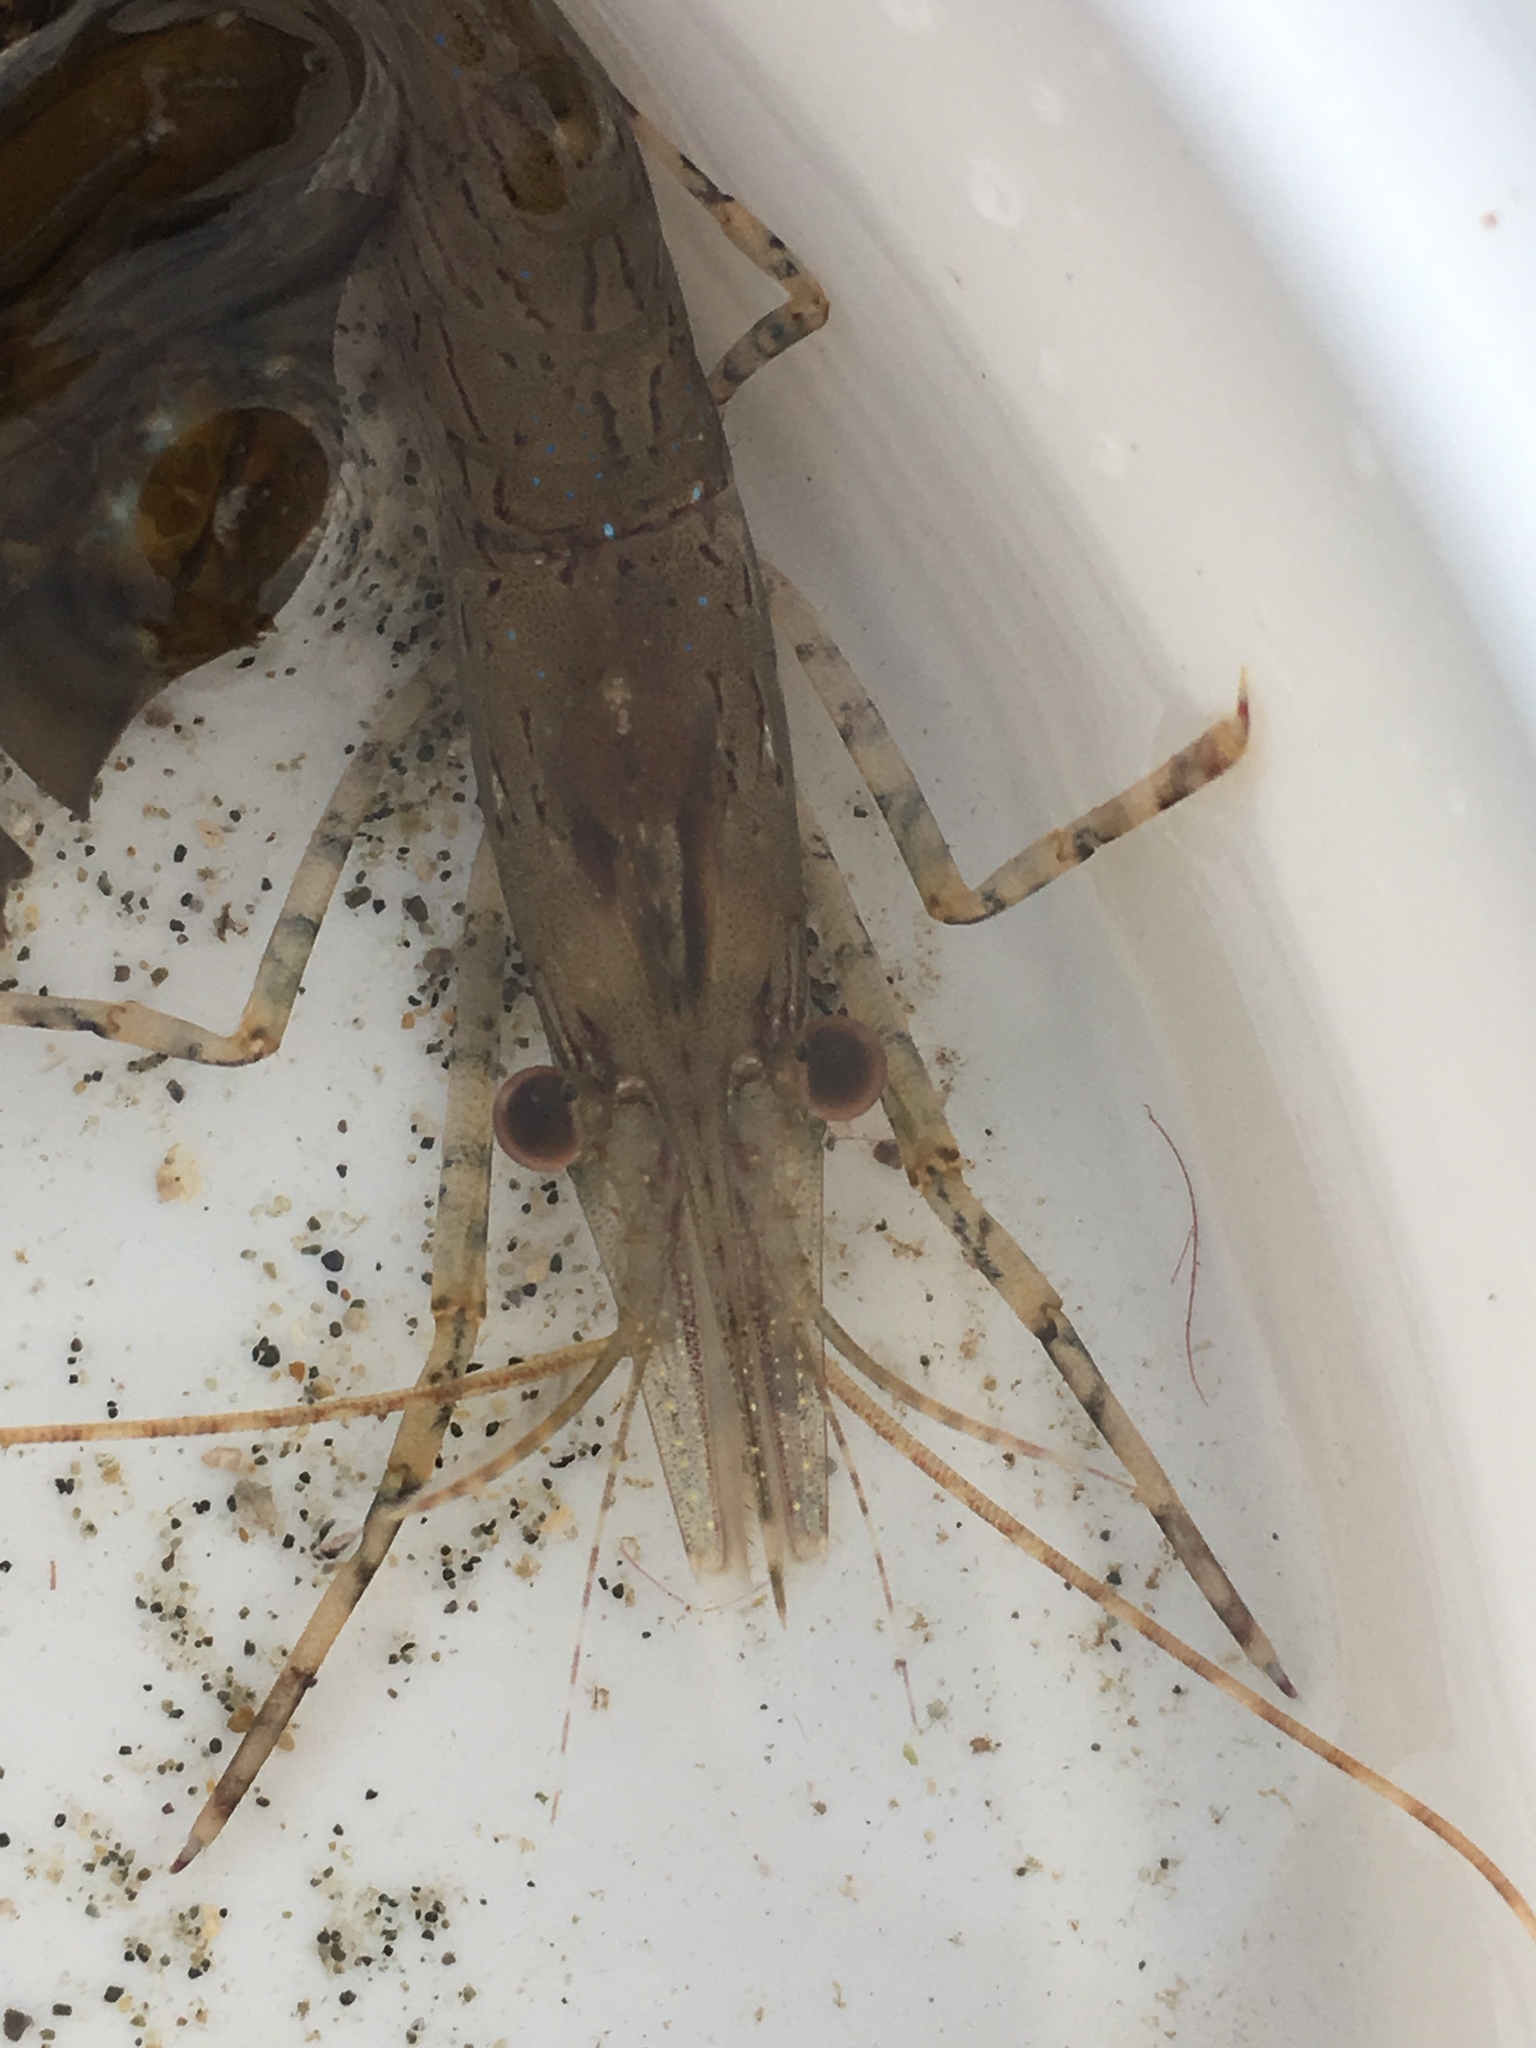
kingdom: Animalia
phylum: Arthropoda
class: Malacostraca
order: Decapoda
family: Pandalidae
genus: Pandalus
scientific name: Pandalus danae
